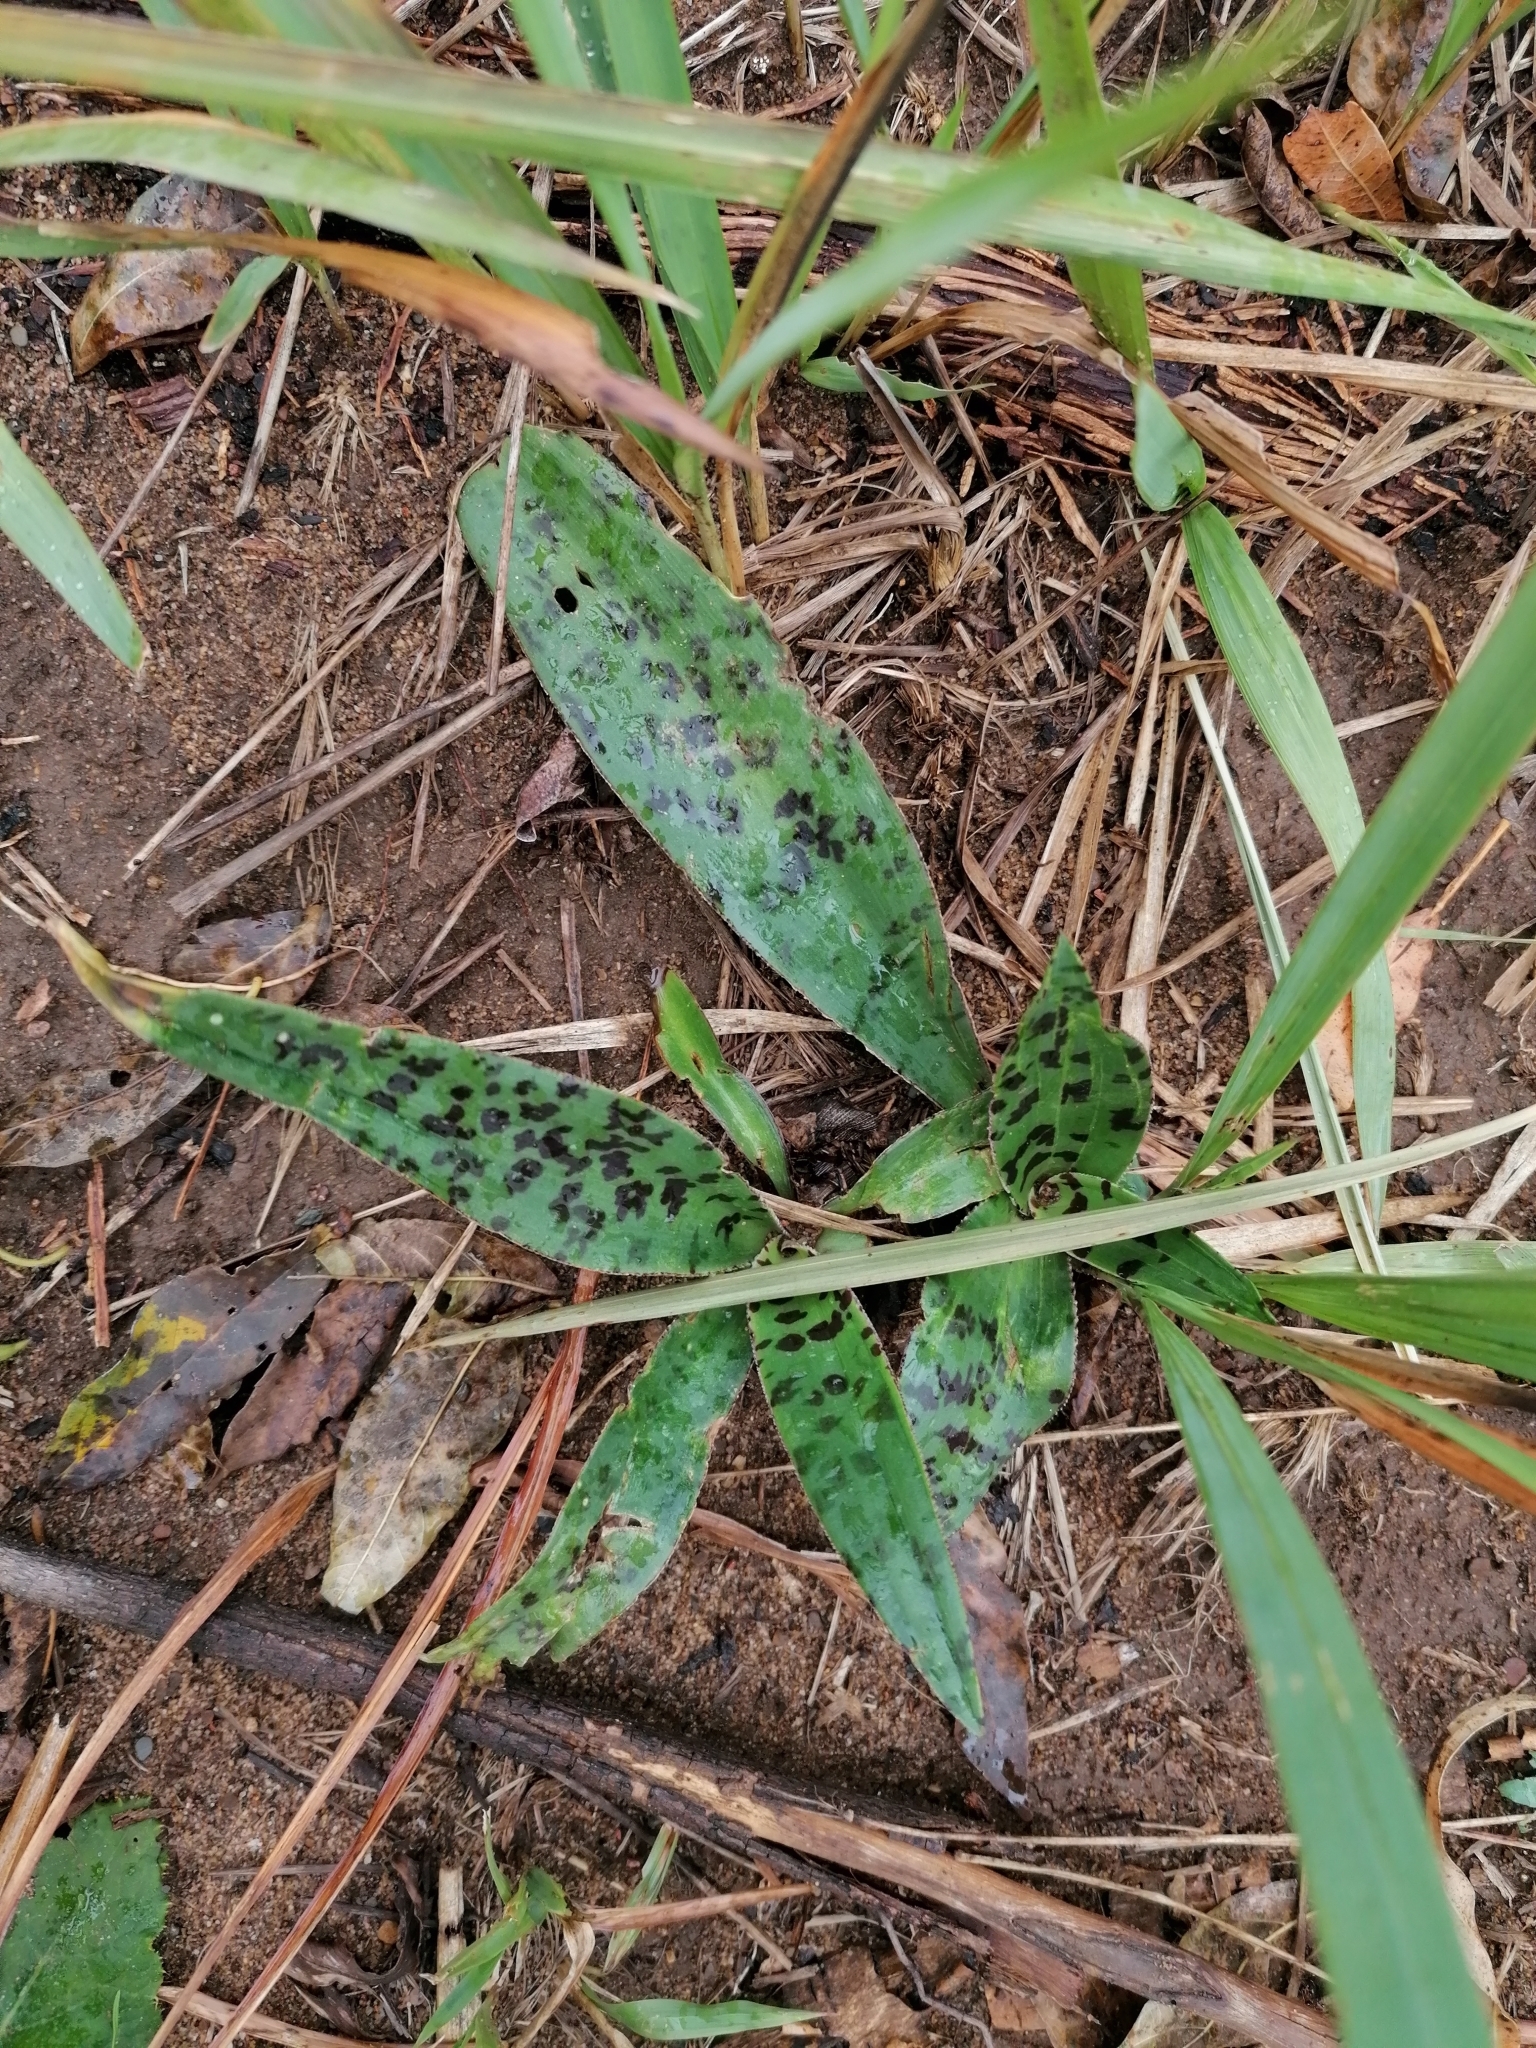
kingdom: Plantae
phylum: Tracheophyta
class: Liliopsida
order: Asparagales
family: Asparagaceae
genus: Ledebouria
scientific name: Ledebouria luteola
